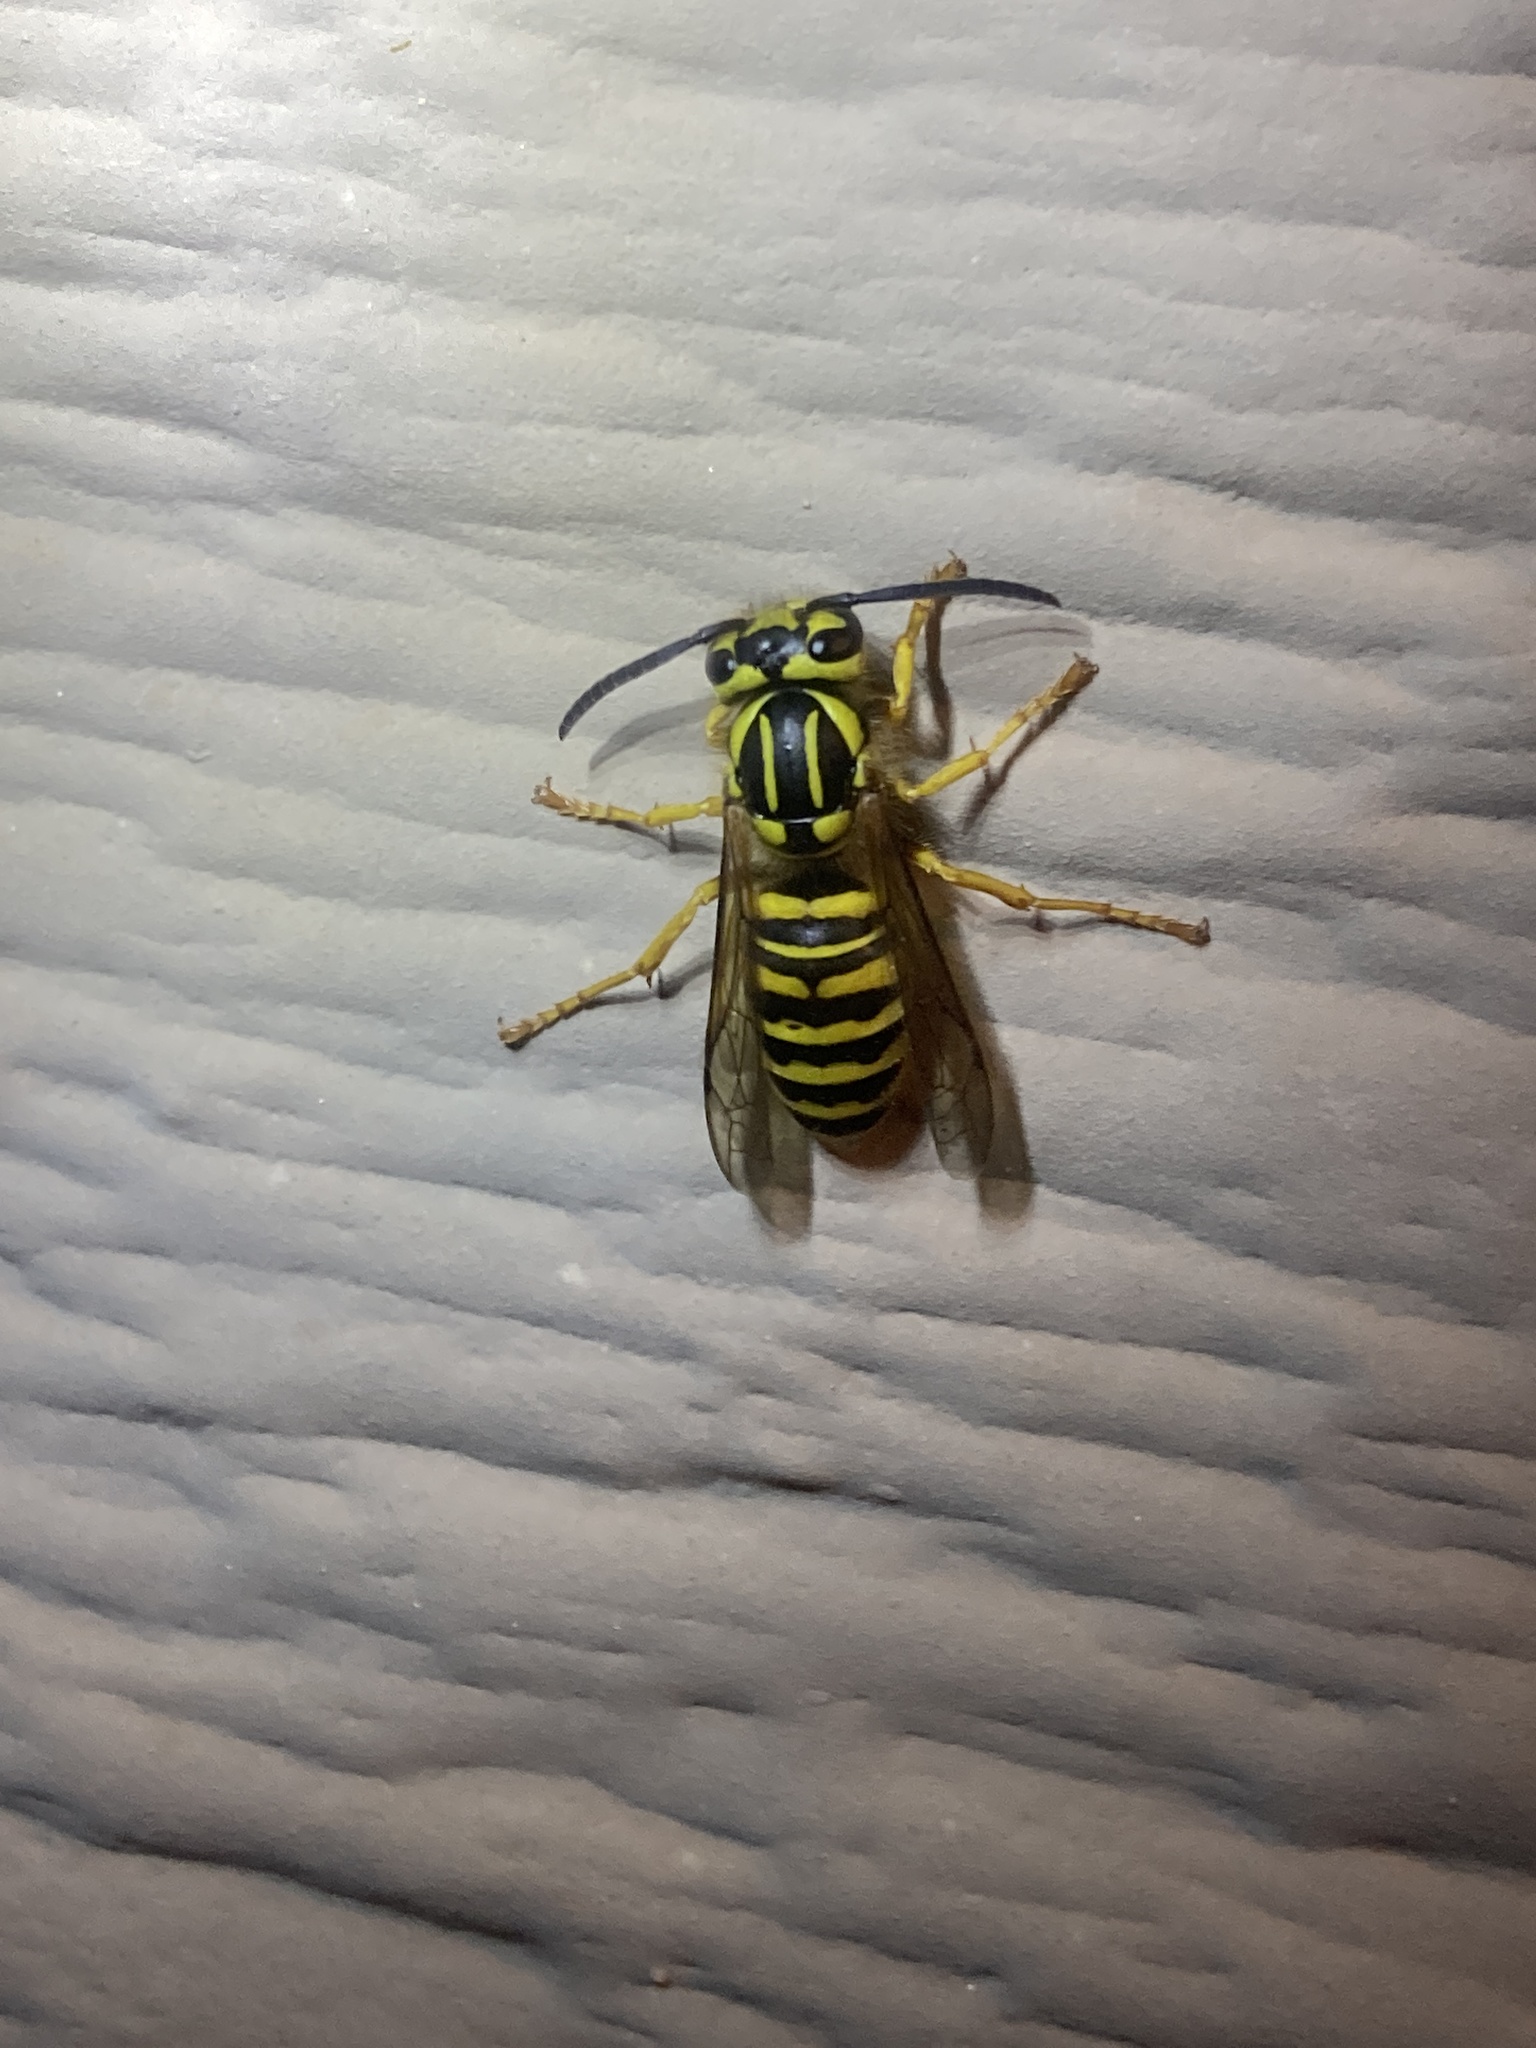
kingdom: Animalia
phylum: Arthropoda
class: Insecta
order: Hymenoptera
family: Vespidae
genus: Vespula
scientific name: Vespula squamosa
